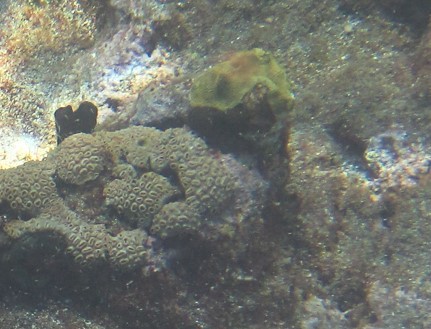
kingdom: Animalia
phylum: Cnidaria
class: Anthozoa
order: Zoantharia
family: Sphenopidae
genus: Palythoa
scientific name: Palythoa caribaeorum
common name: Encrusting colonial anemone
